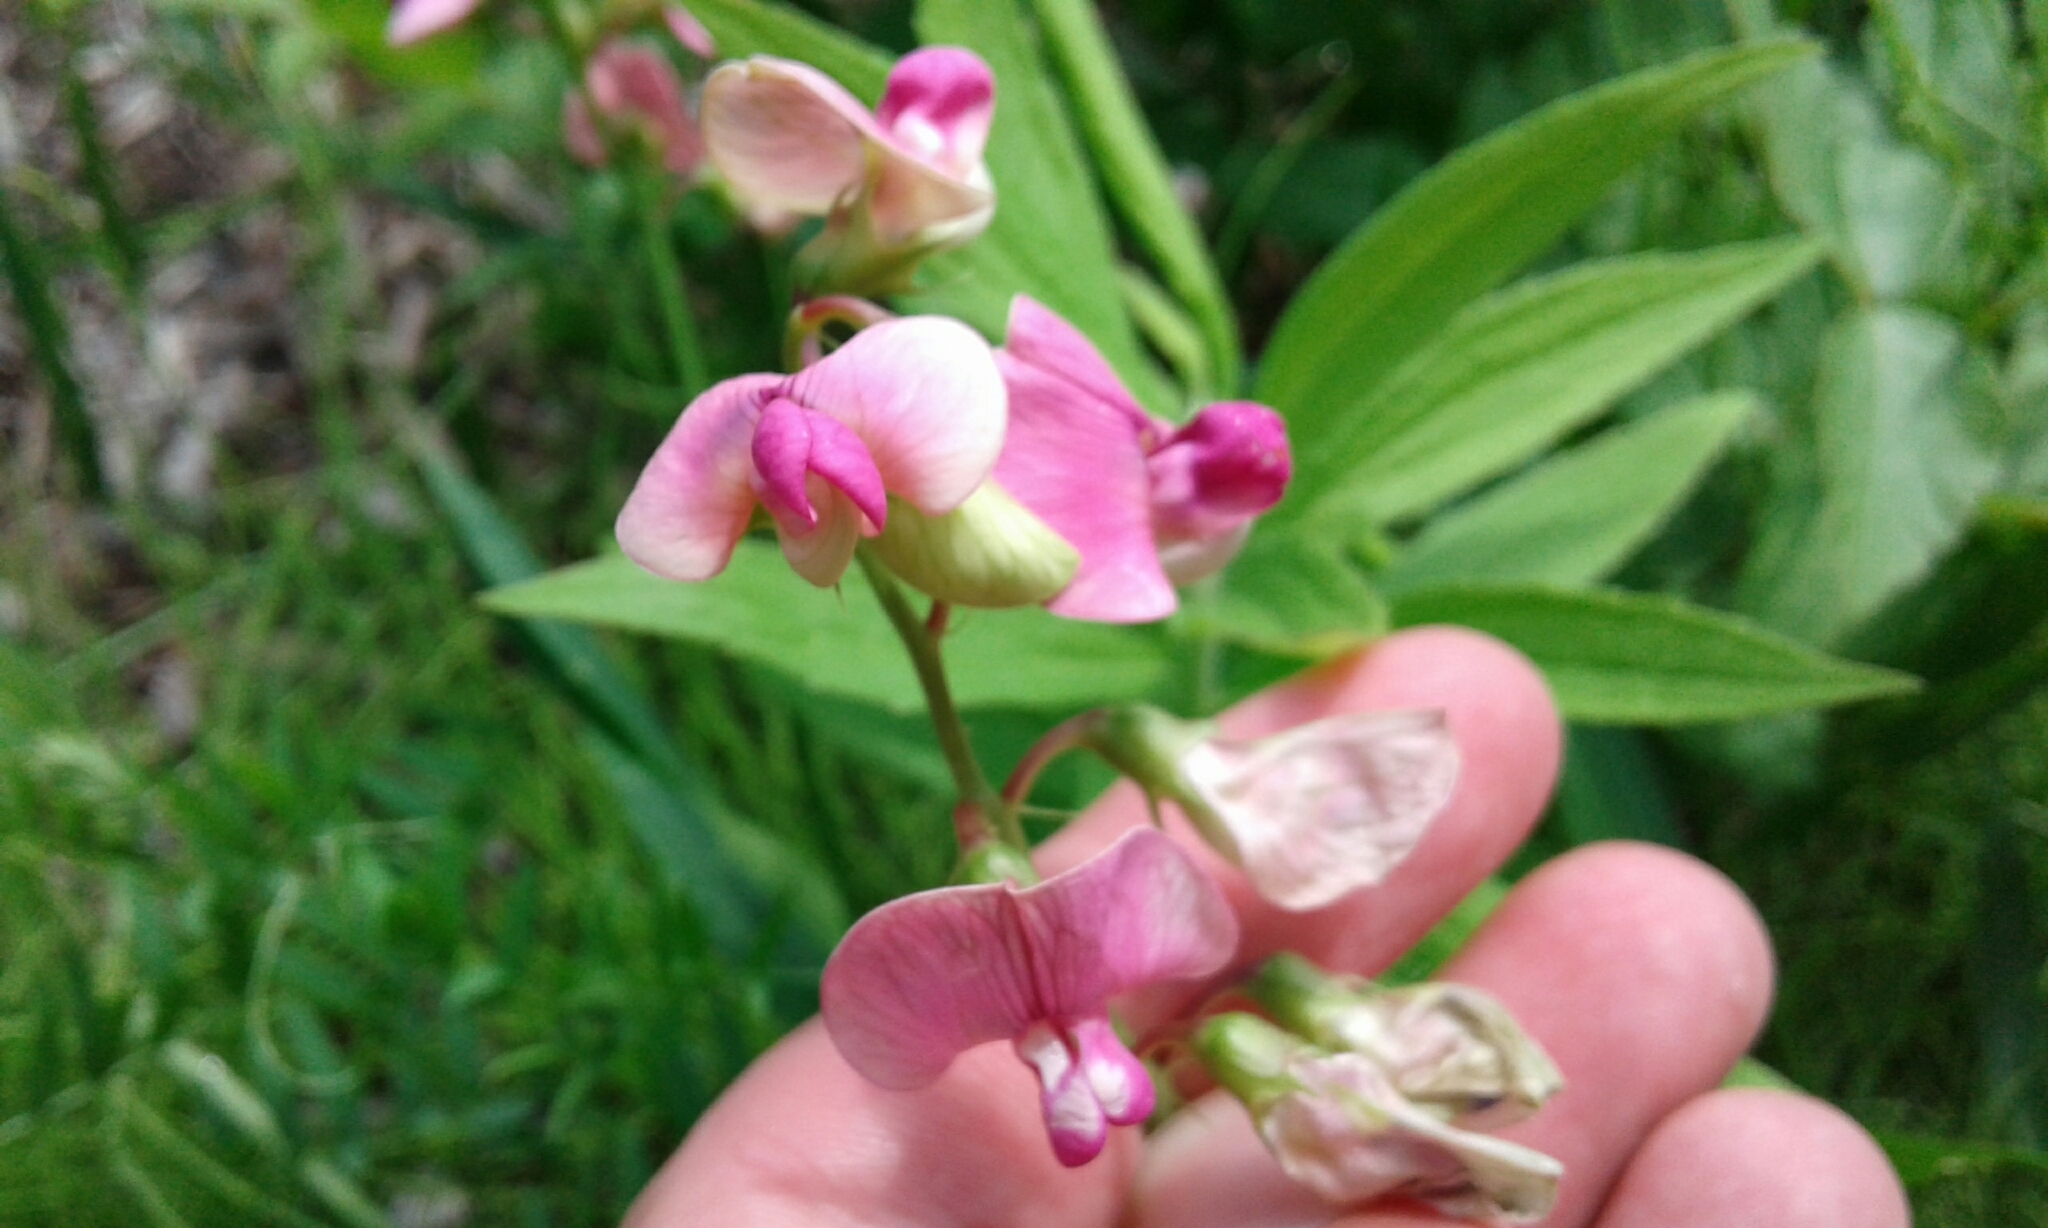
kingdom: Plantae
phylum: Tracheophyta
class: Magnoliopsida
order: Fabales
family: Fabaceae
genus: Lathyrus
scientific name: Lathyrus latifolius
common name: Perennial pea
